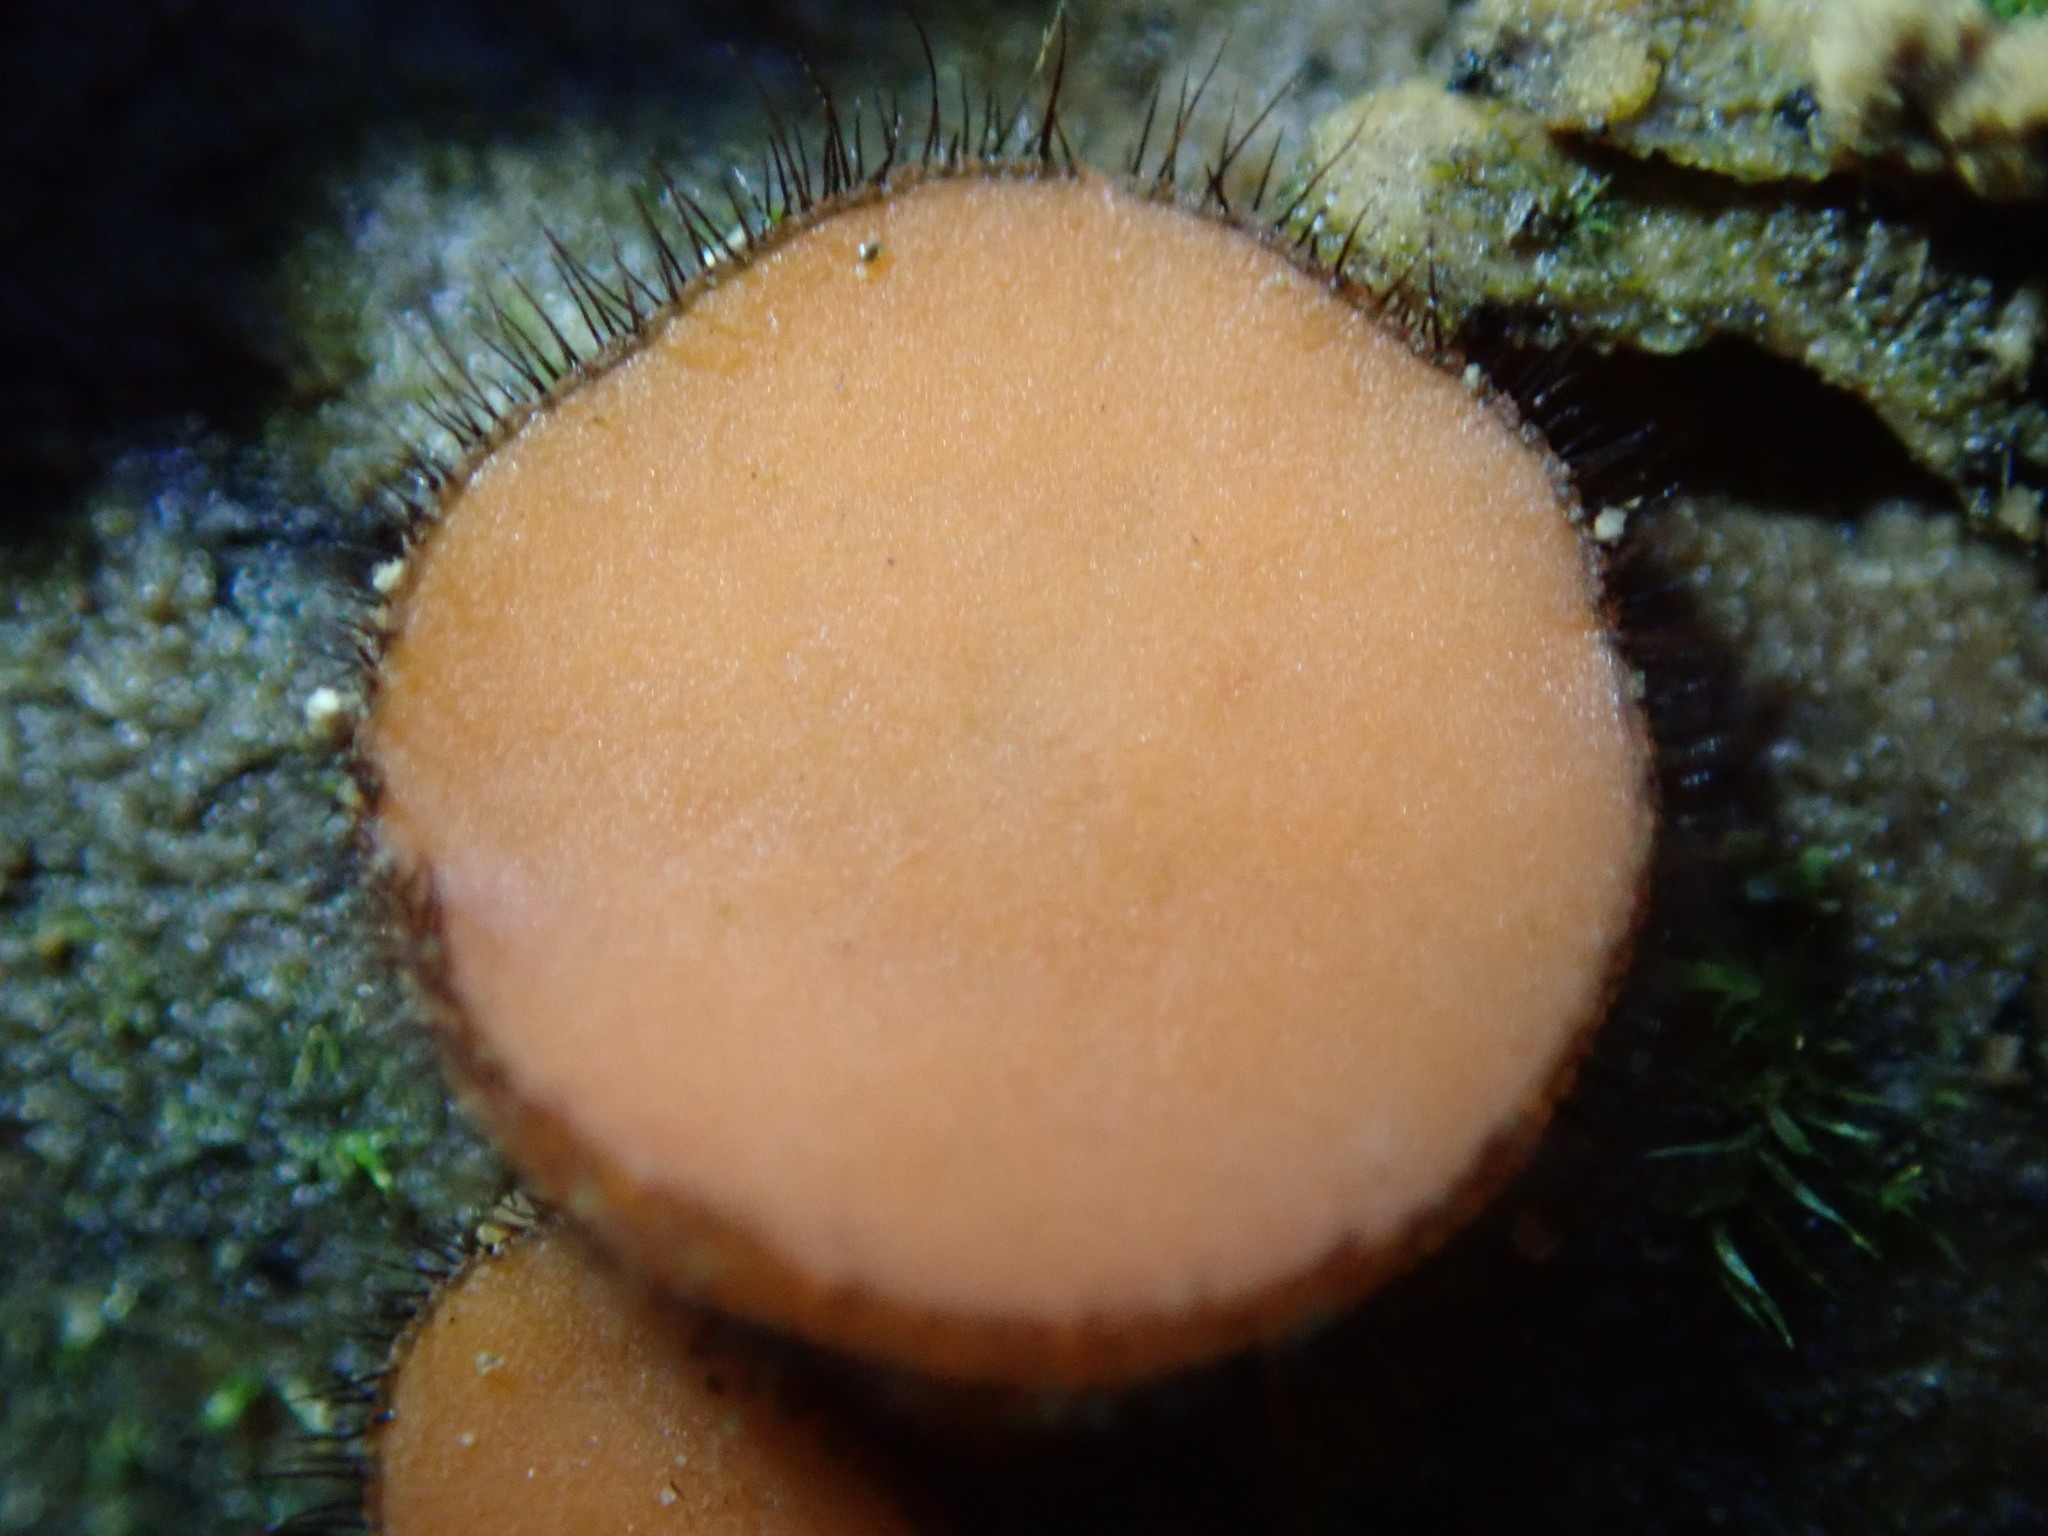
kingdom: Fungi
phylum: Ascomycota
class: Pezizomycetes
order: Pezizales
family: Pyronemataceae
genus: Scutellinia
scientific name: Scutellinia scutellata
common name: Common eyelash
